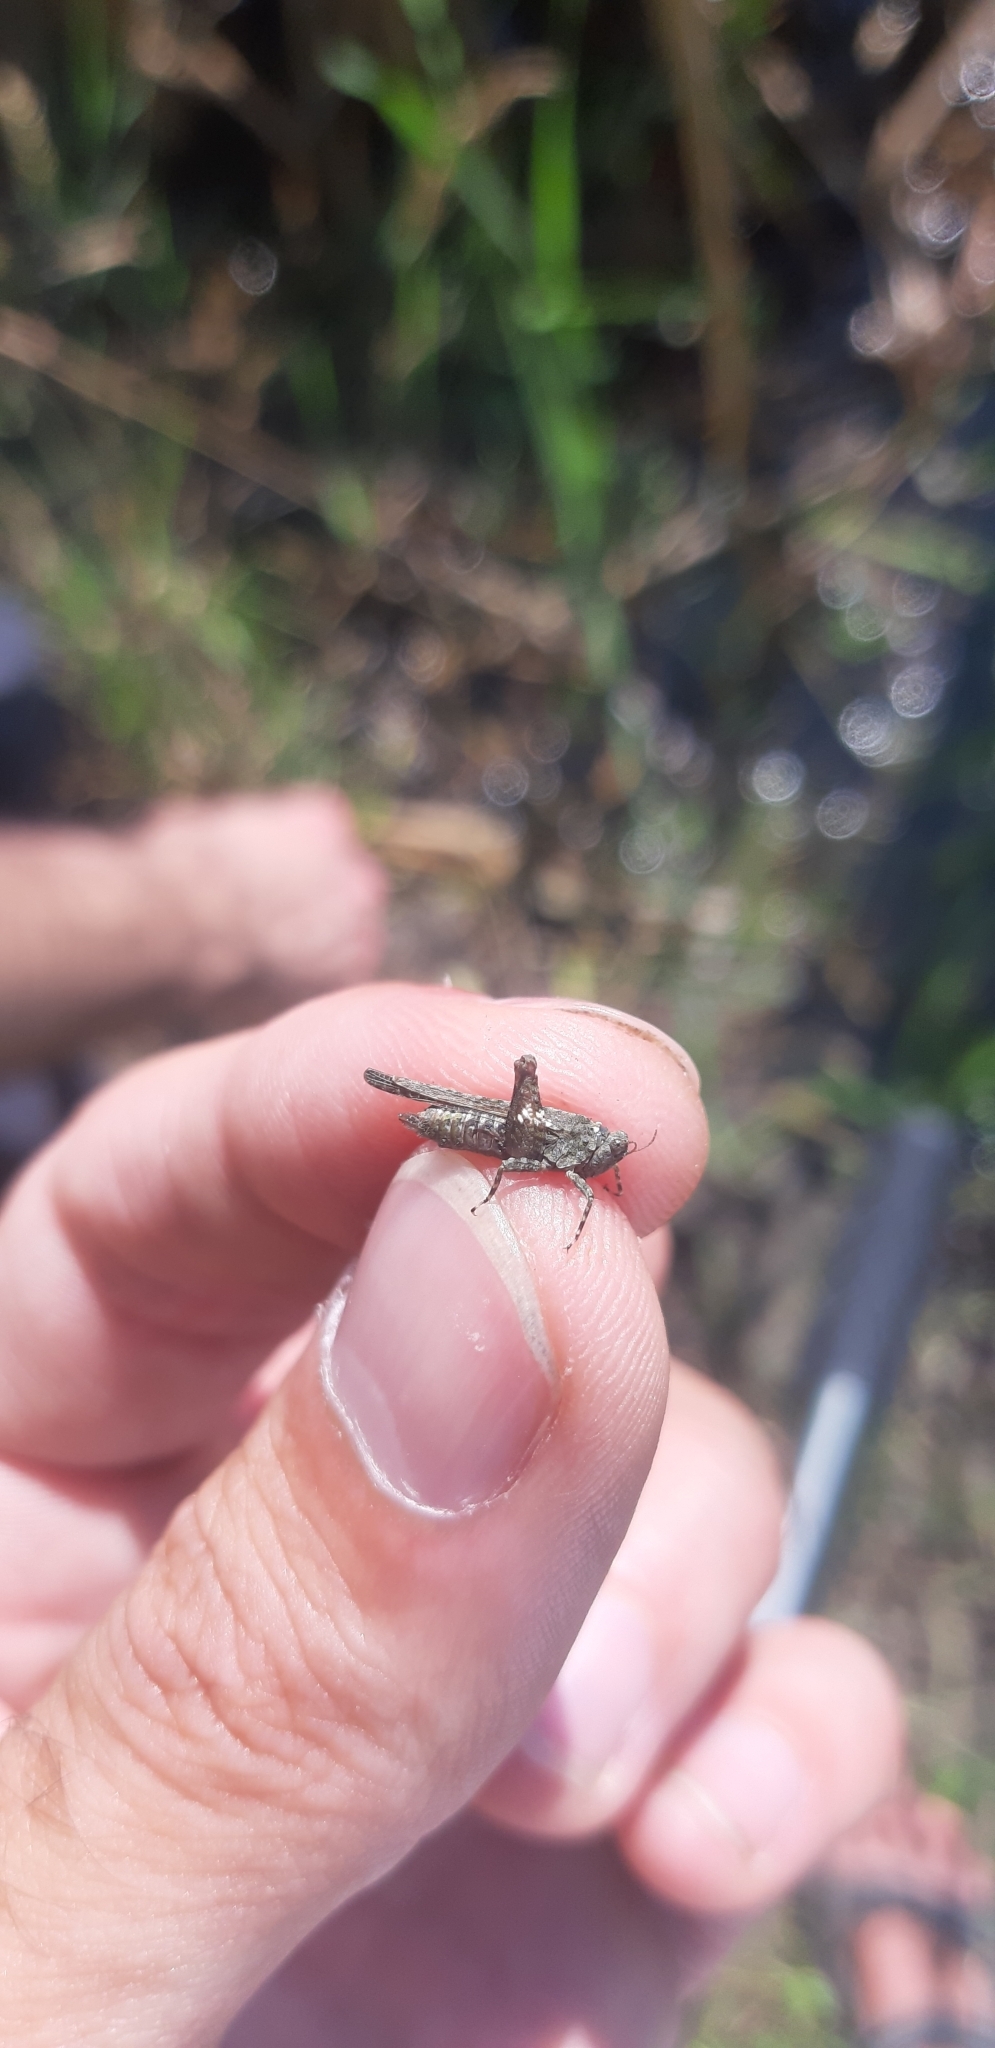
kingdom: Animalia
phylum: Arthropoda
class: Insecta
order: Orthoptera
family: Tetrigidae
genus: Paratettix
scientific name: Paratettix meridionalis
